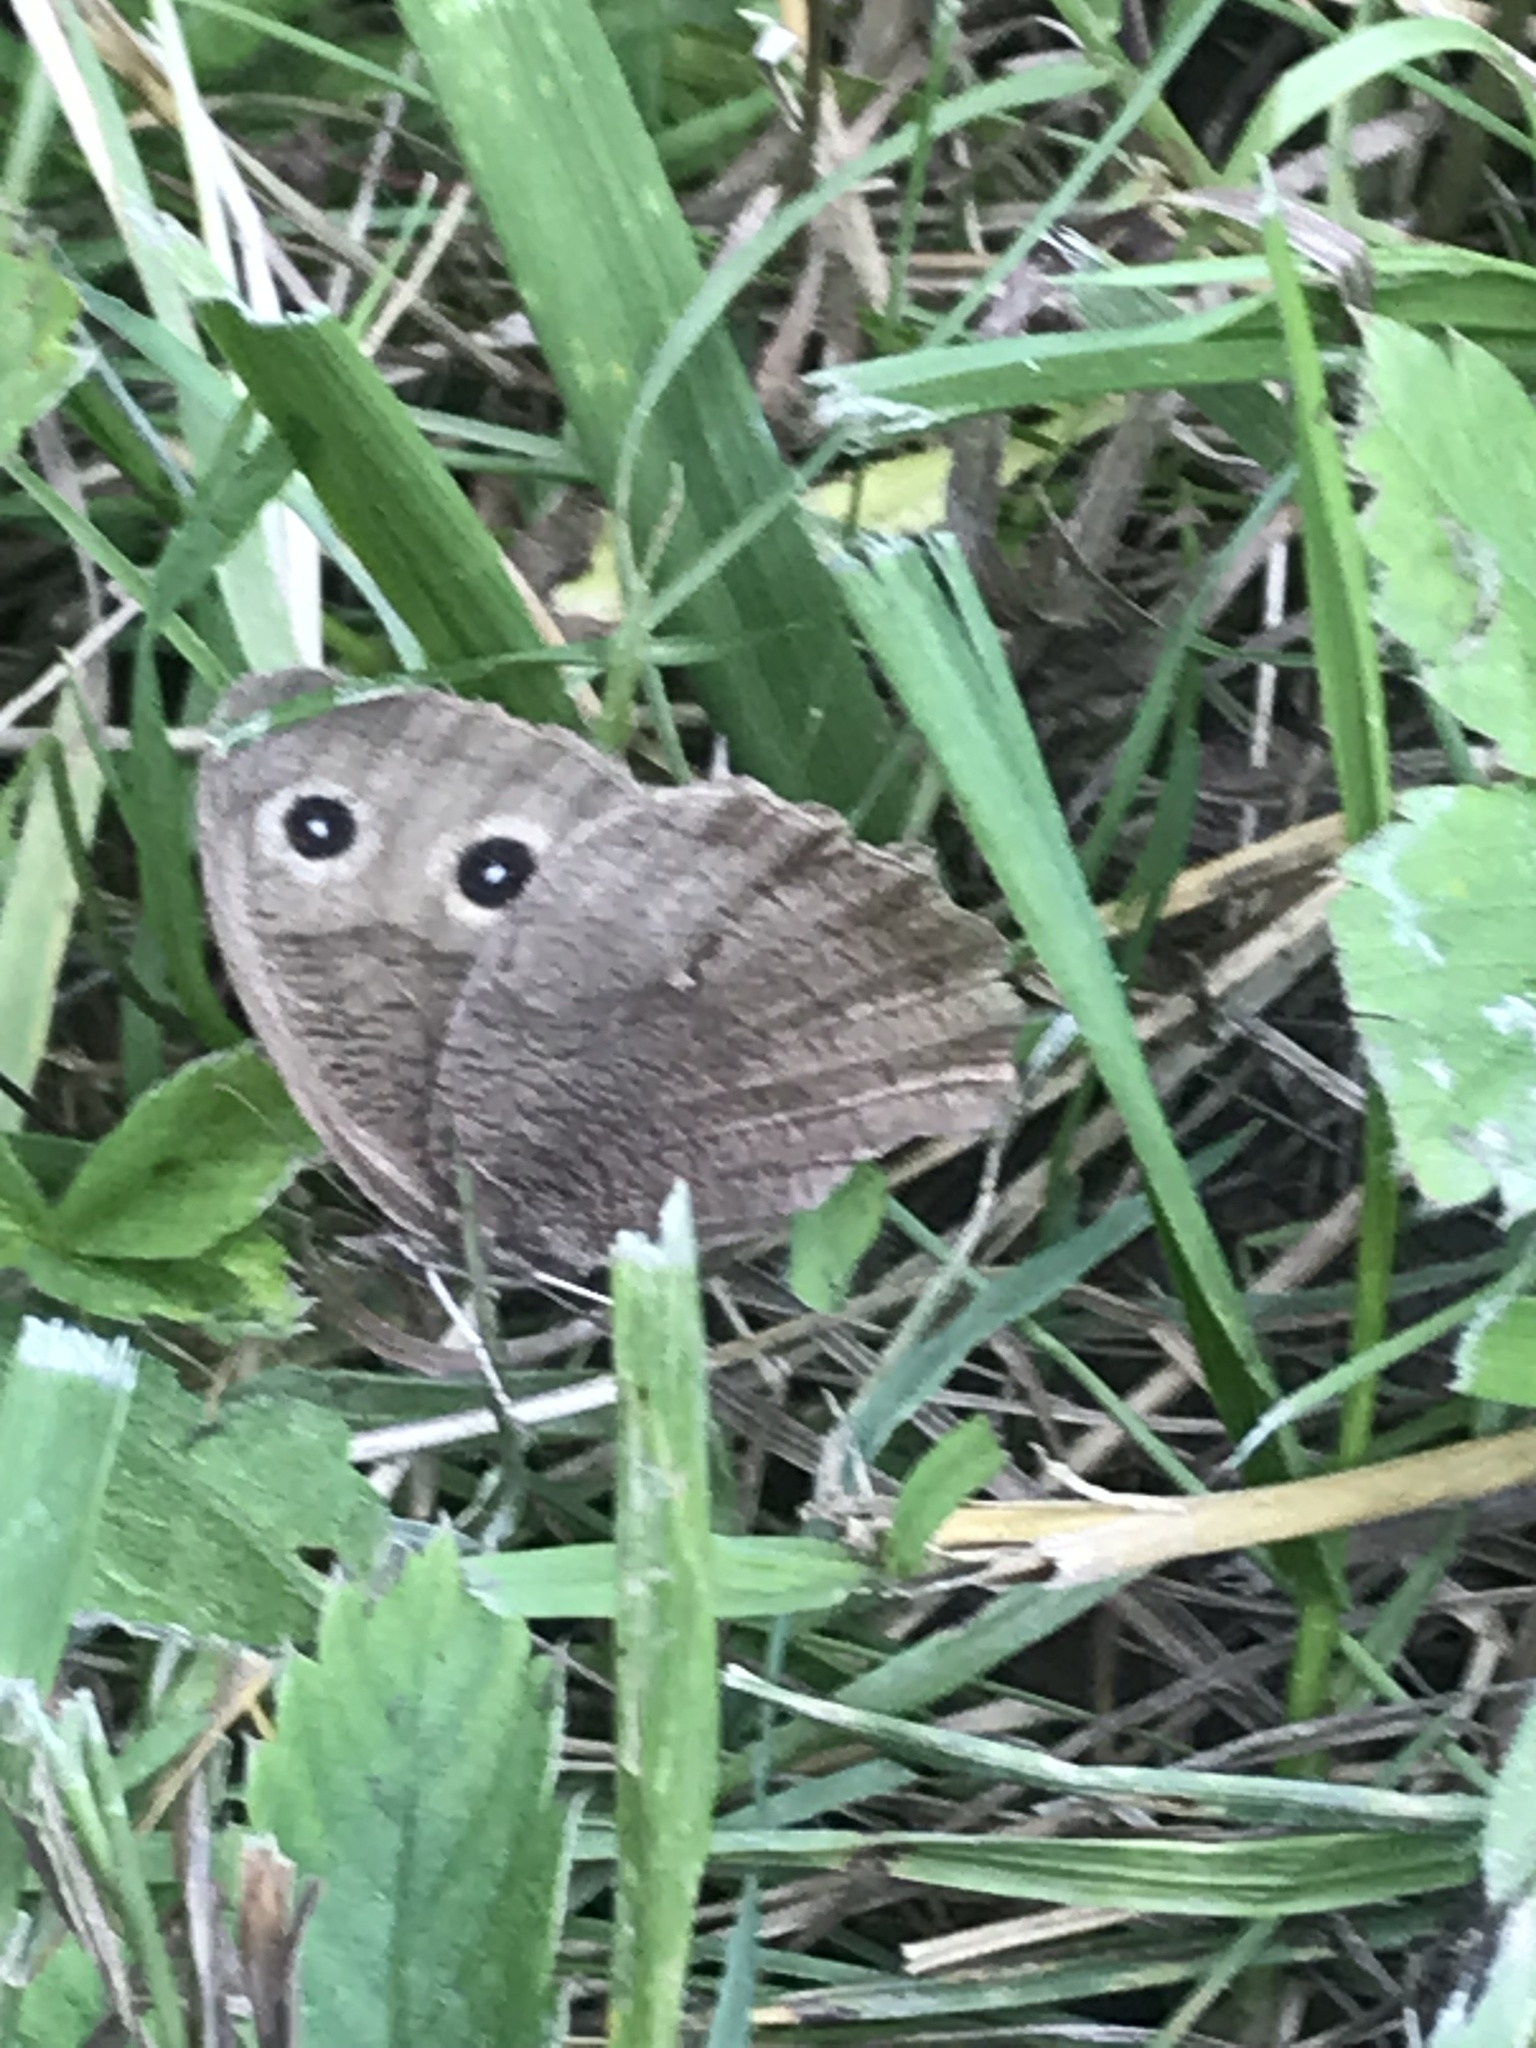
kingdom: Animalia
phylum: Arthropoda
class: Insecta
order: Lepidoptera
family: Nymphalidae
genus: Cercyonis
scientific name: Cercyonis pegala
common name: Common wood-nymph
